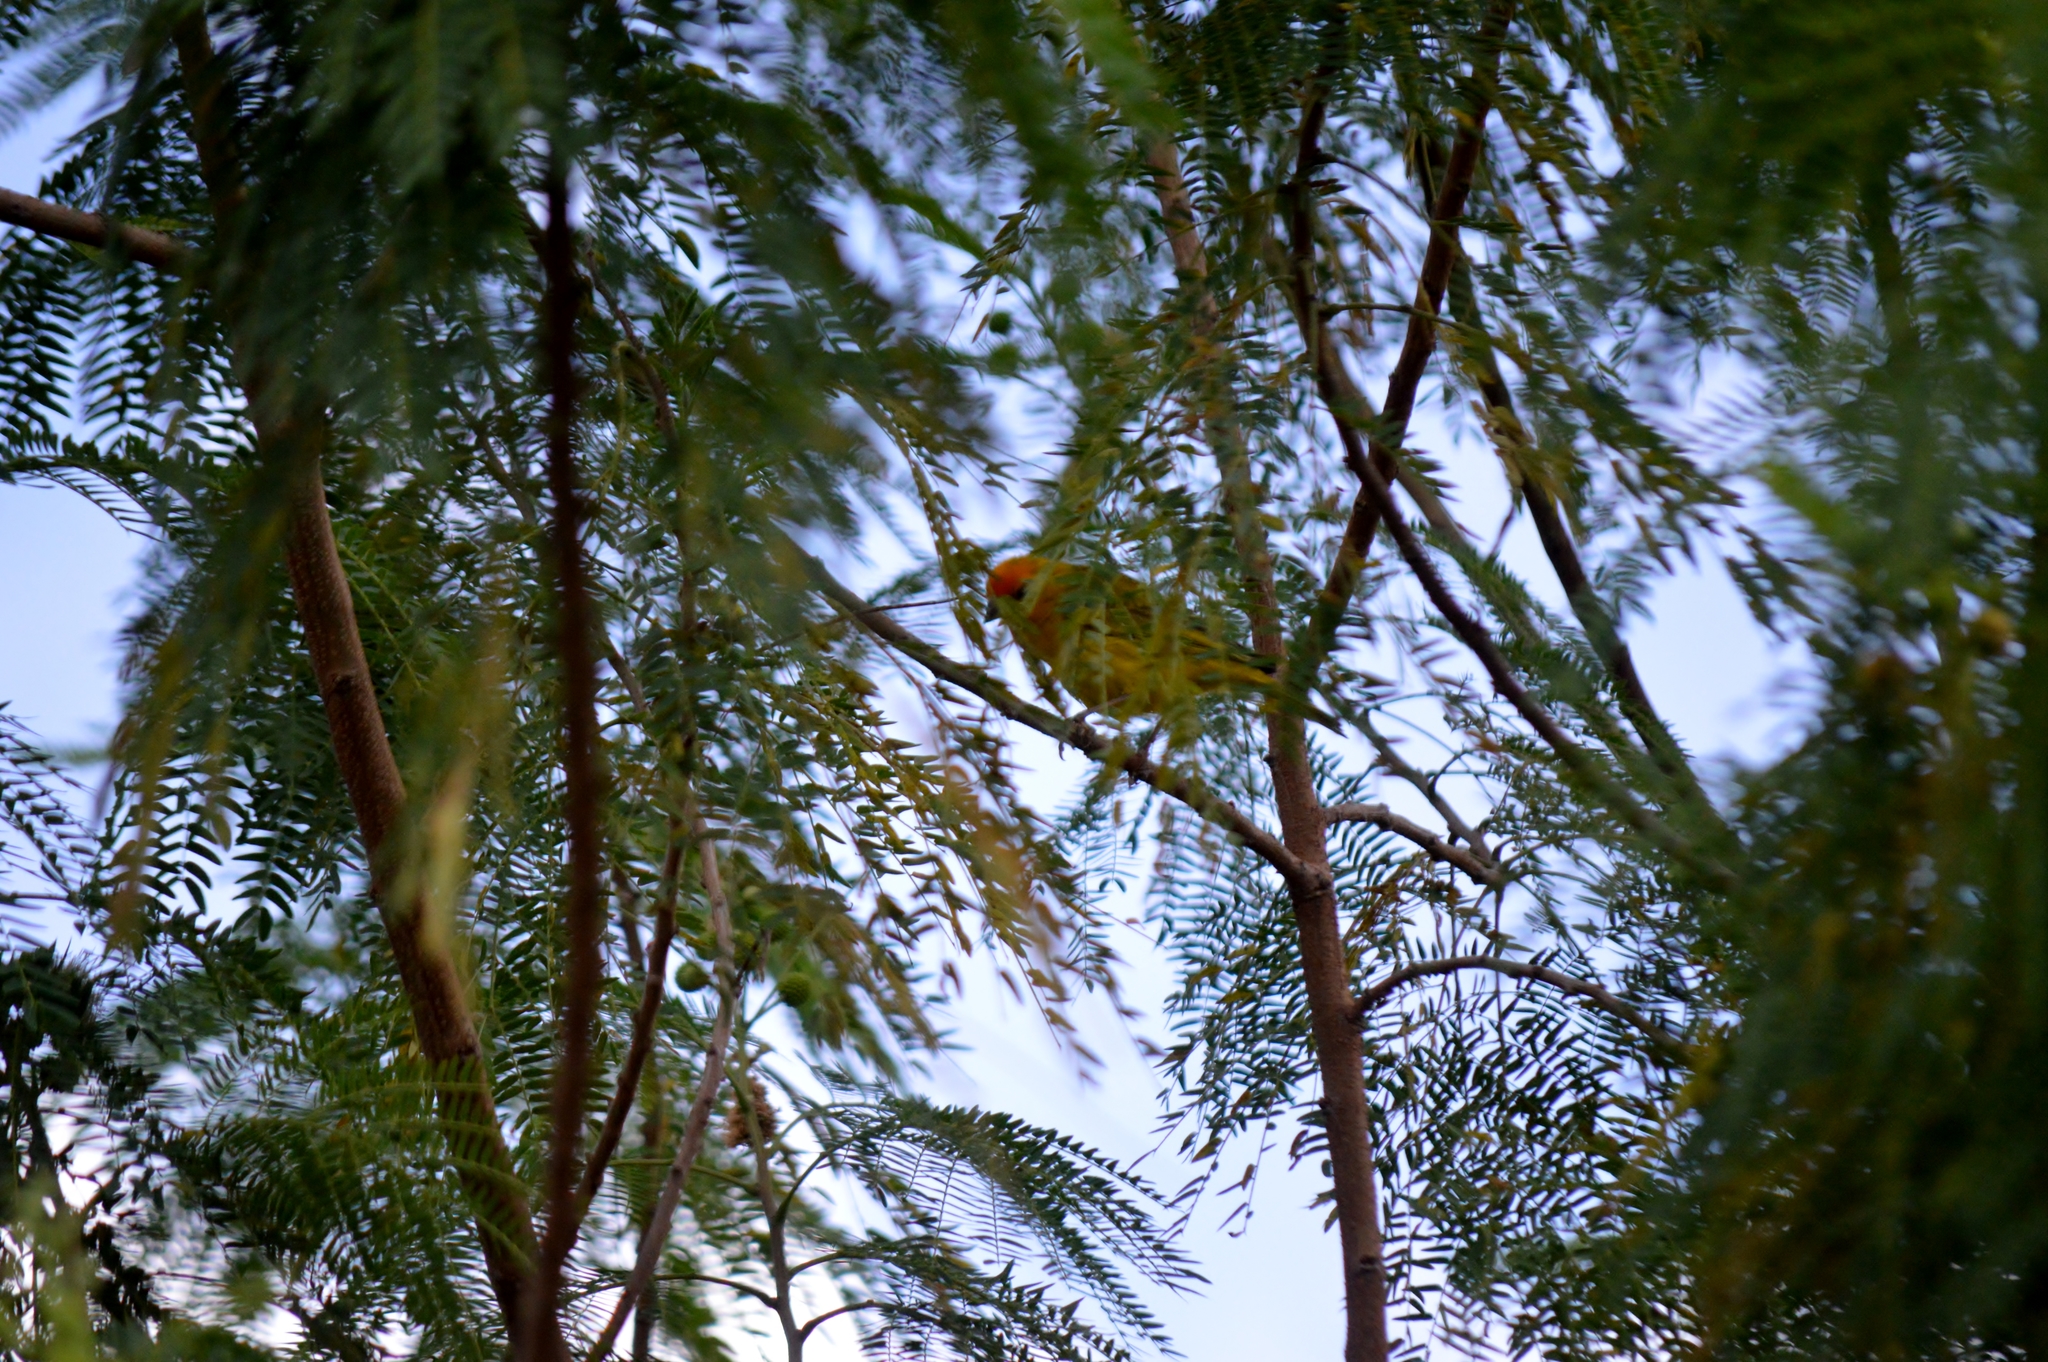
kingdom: Animalia
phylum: Chordata
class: Aves
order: Passeriformes
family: Thraupidae
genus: Sicalis
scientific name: Sicalis flaveola
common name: Saffron finch
